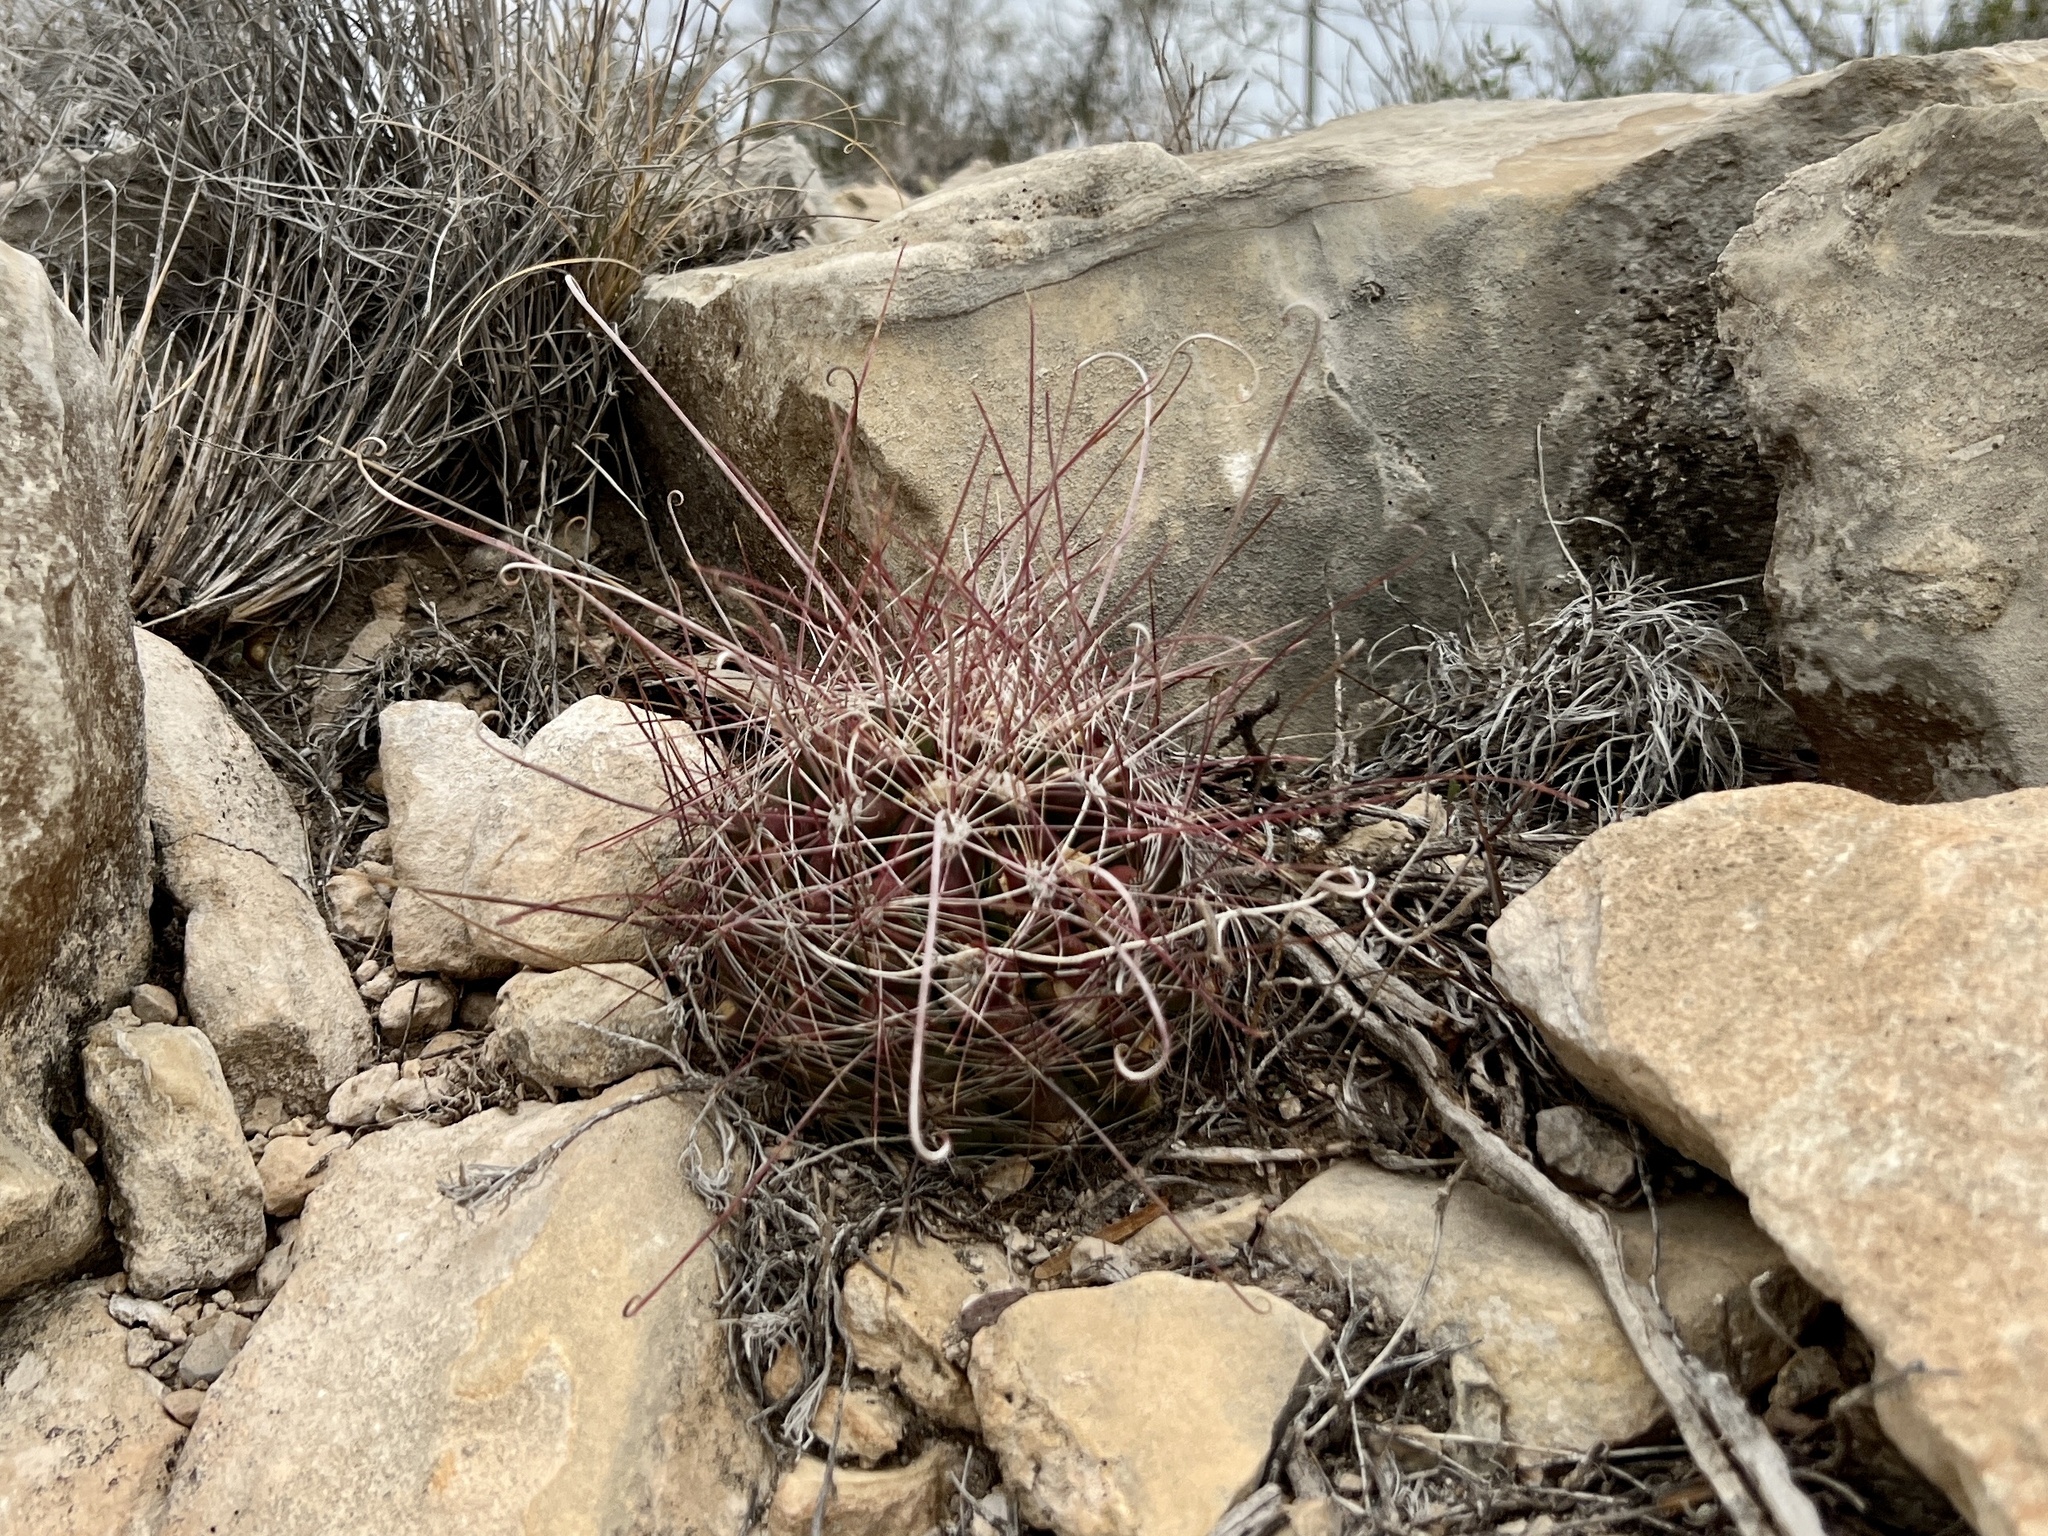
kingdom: Plantae
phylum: Tracheophyta
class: Magnoliopsida
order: Caryophyllales
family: Cactaceae
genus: Bisnaga
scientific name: Bisnaga hamatacantha
